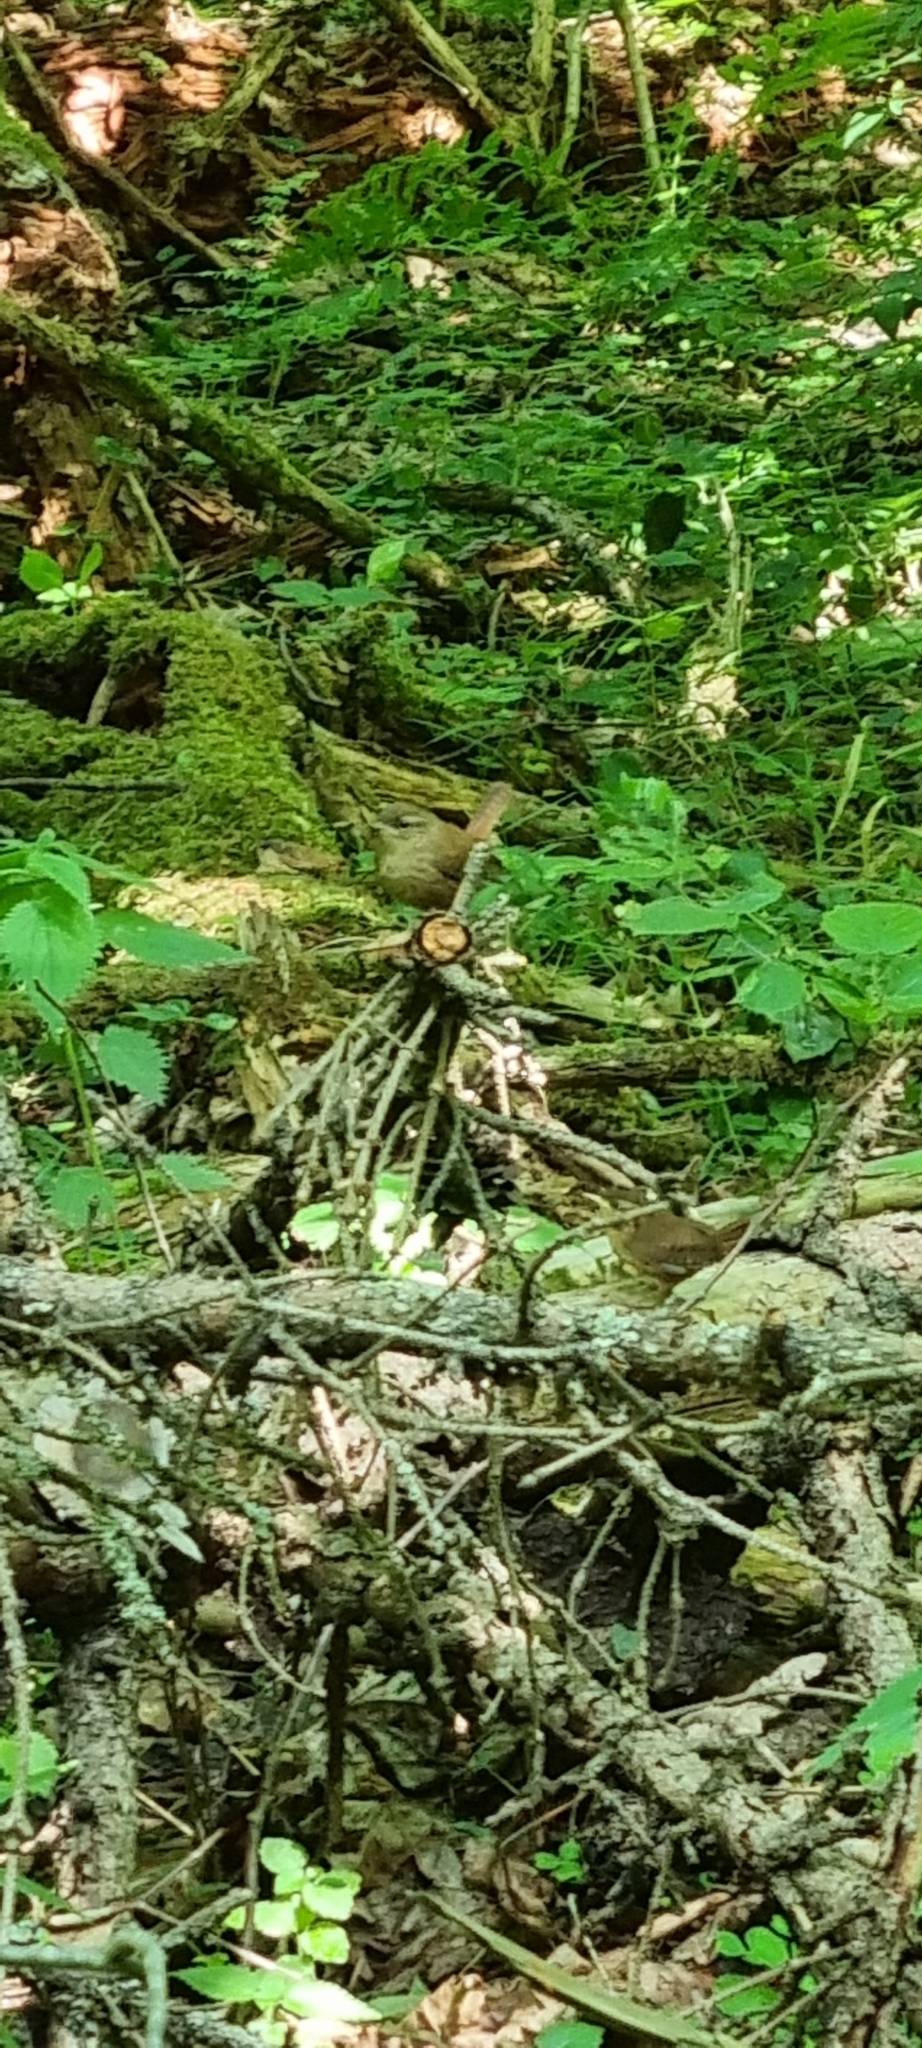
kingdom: Animalia
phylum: Chordata
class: Aves
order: Passeriformes
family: Troglodytidae
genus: Troglodytes
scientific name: Troglodytes troglodytes
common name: Eurasian wren
